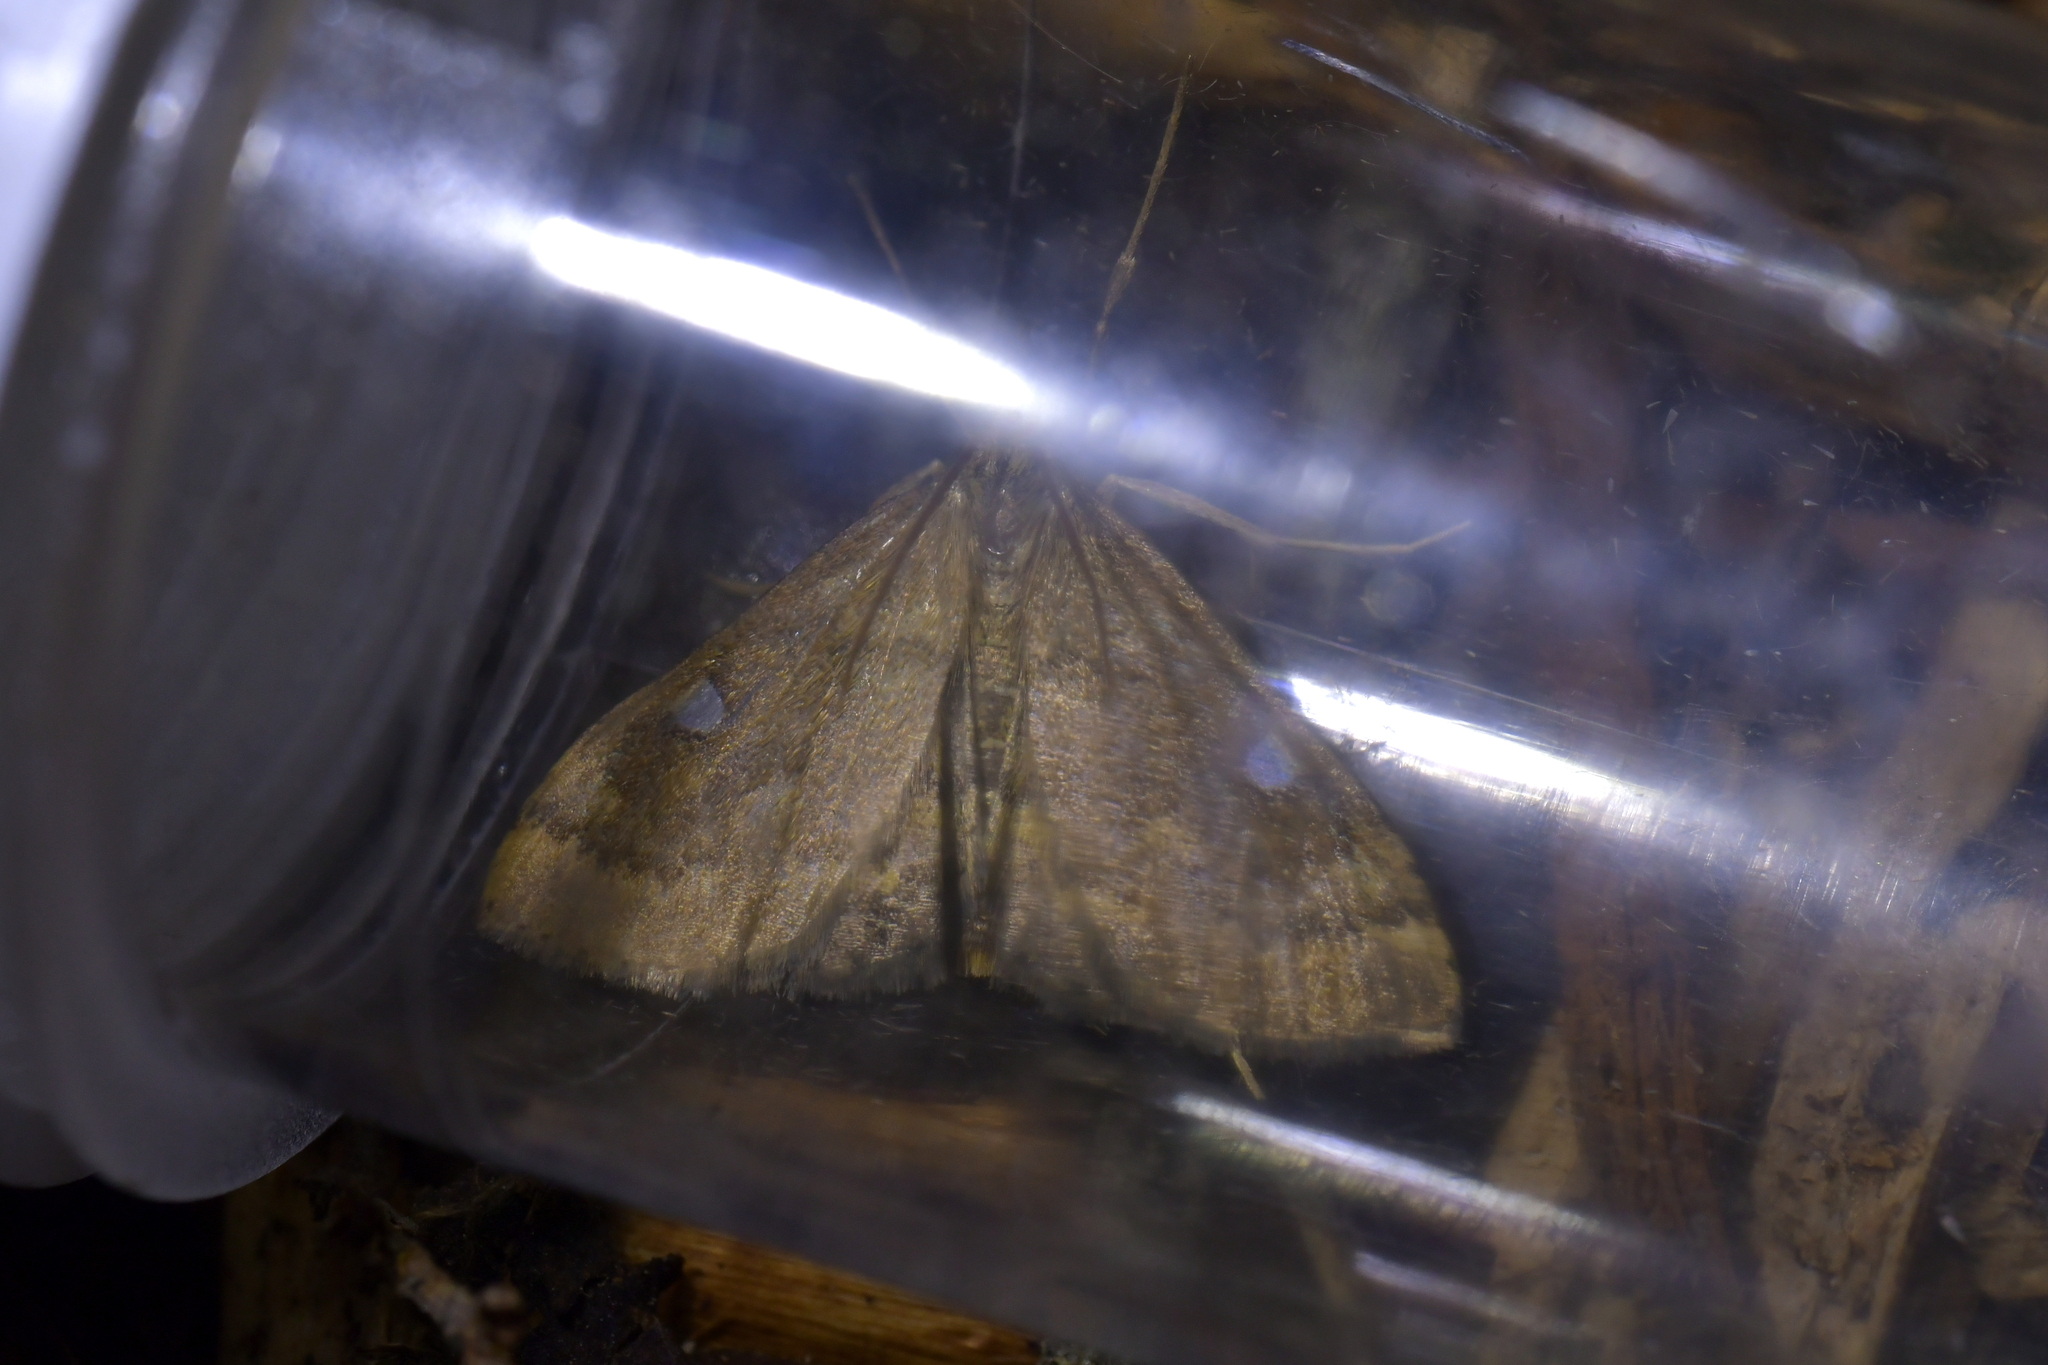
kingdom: Animalia
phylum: Arthropoda
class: Insecta
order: Lepidoptera
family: Crambidae
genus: Udea
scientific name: Udea marmarina
